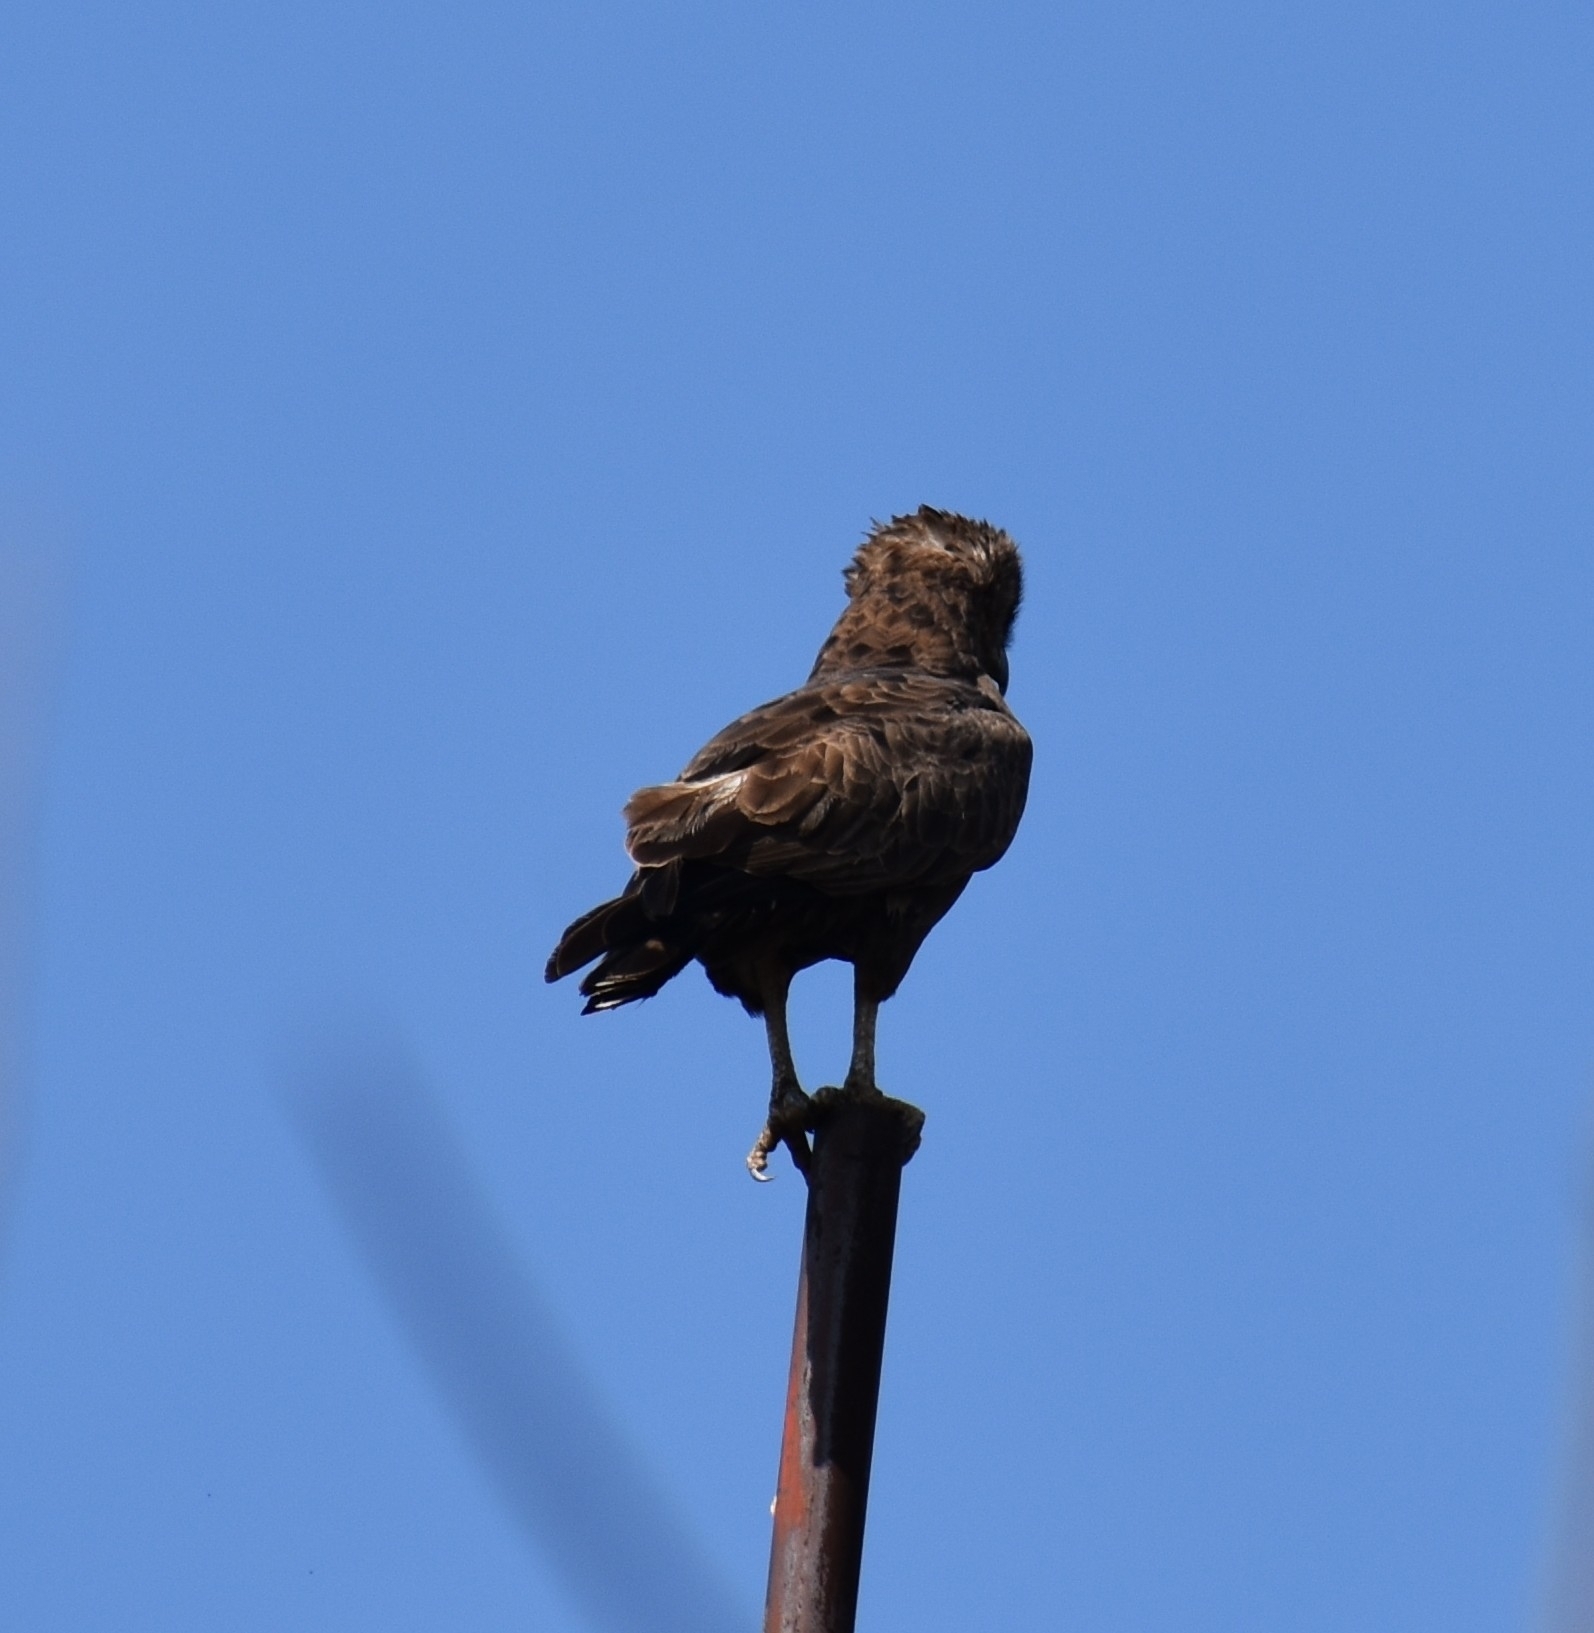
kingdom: Animalia
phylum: Chordata
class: Aves
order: Accipitriformes
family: Accipitridae
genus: Circaetus
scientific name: Circaetus cinereus
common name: Brown snake eagle
